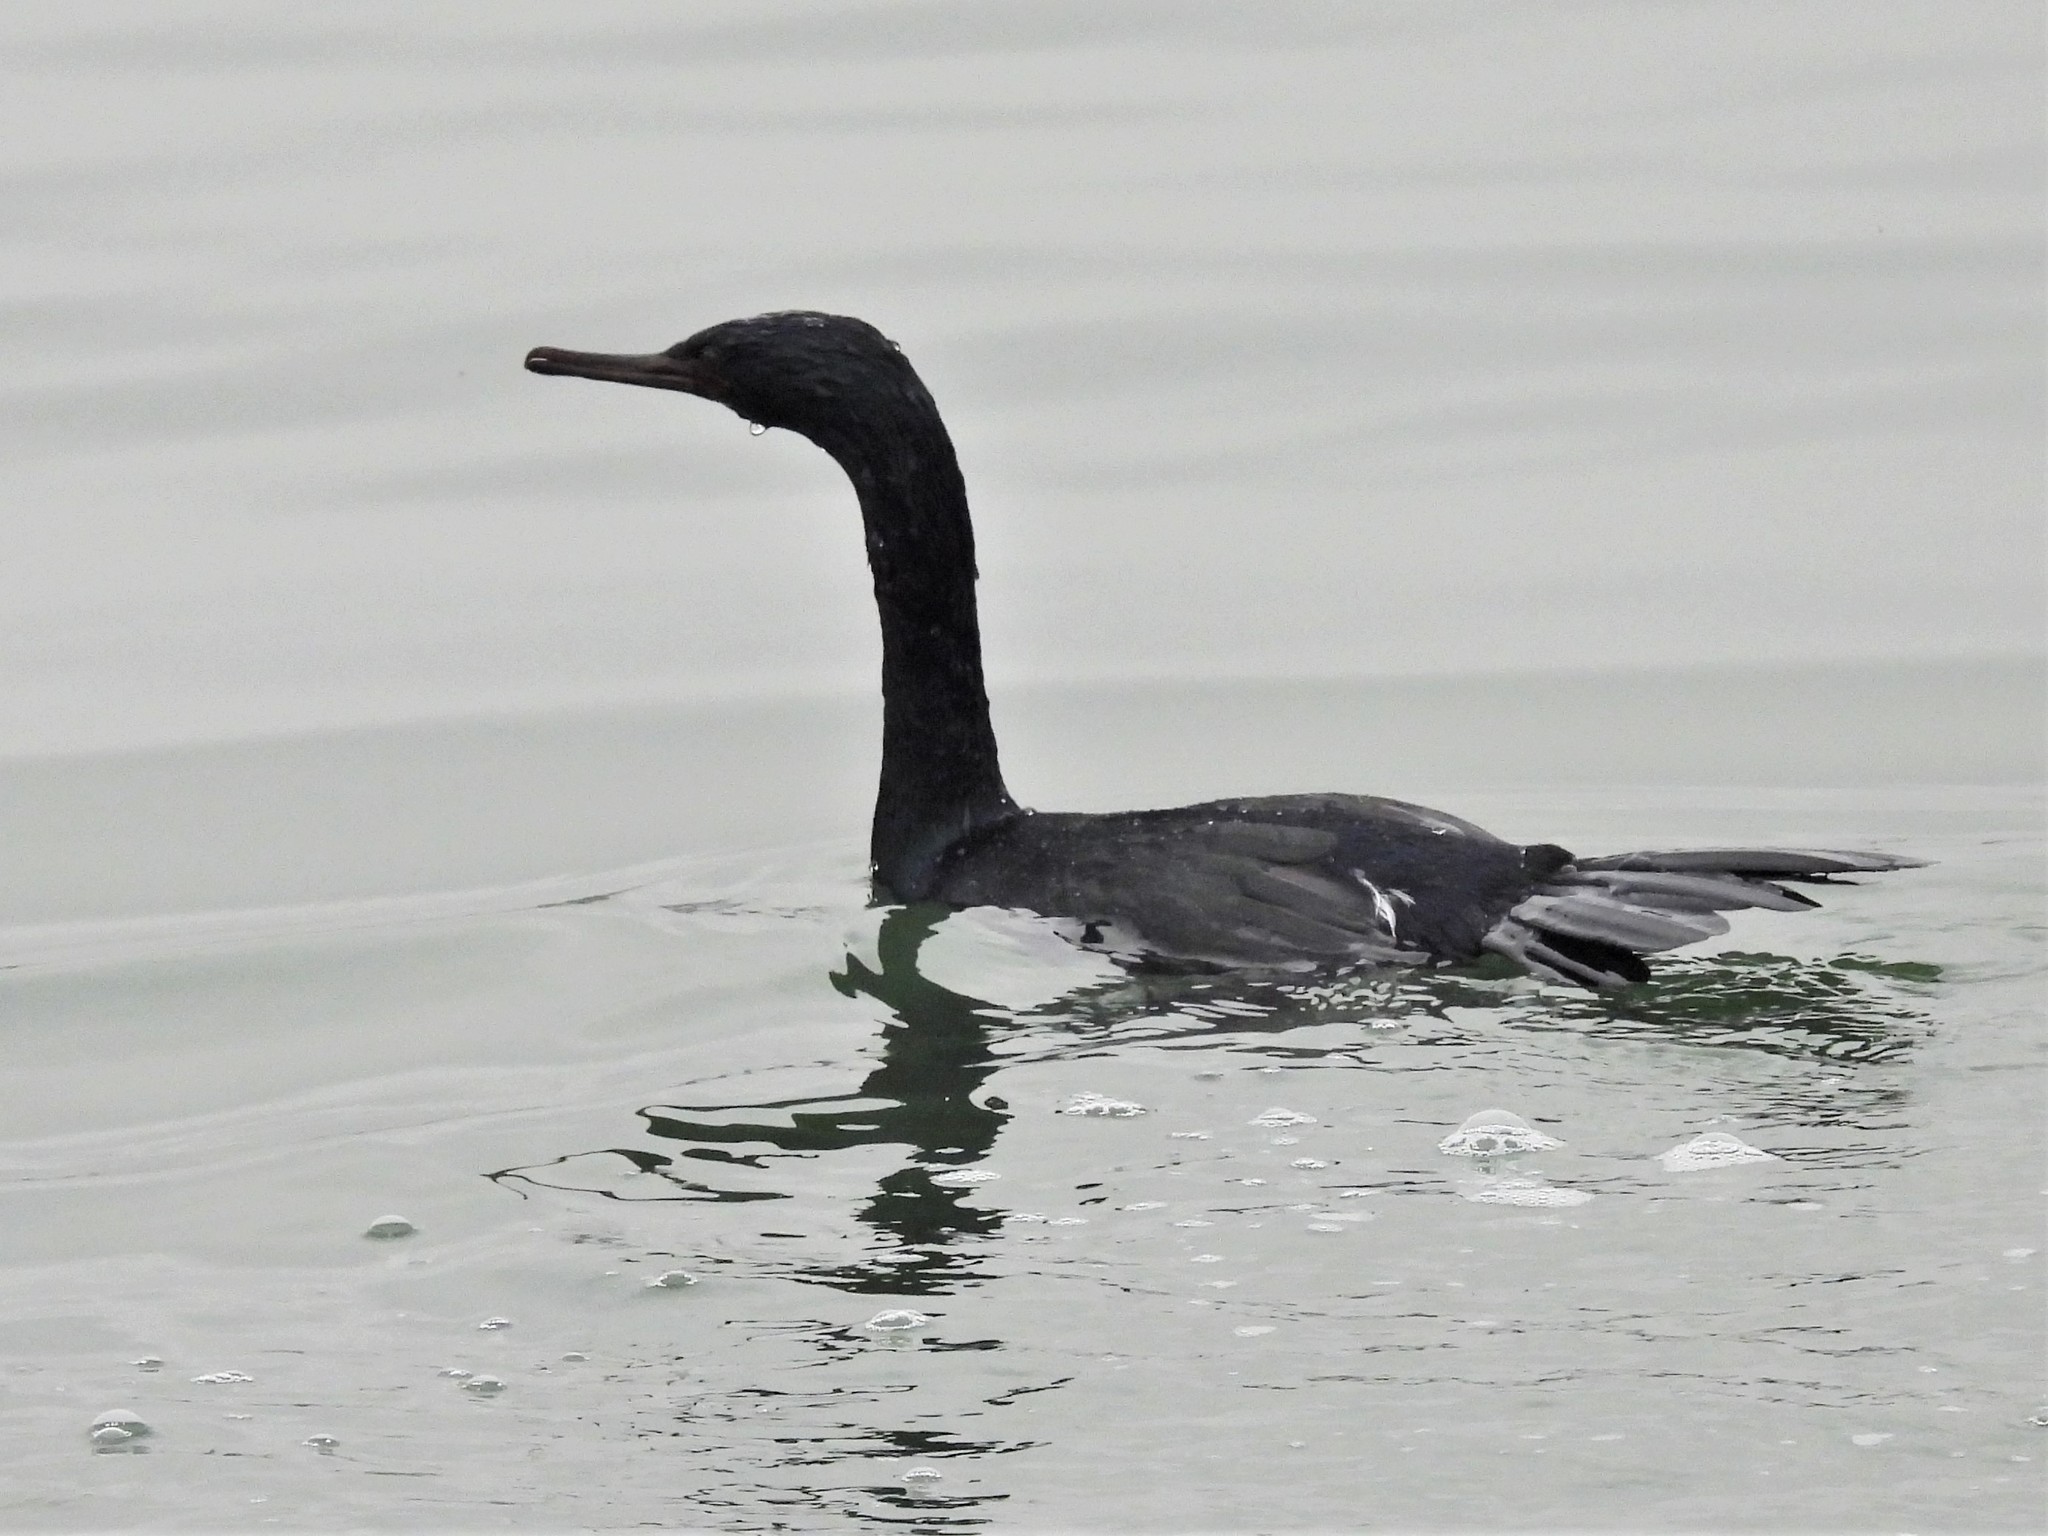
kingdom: Animalia
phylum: Chordata
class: Aves
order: Suliformes
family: Phalacrocoracidae
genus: Phalacrocorax
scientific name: Phalacrocorax pelagicus
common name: Pelagic cormorant
